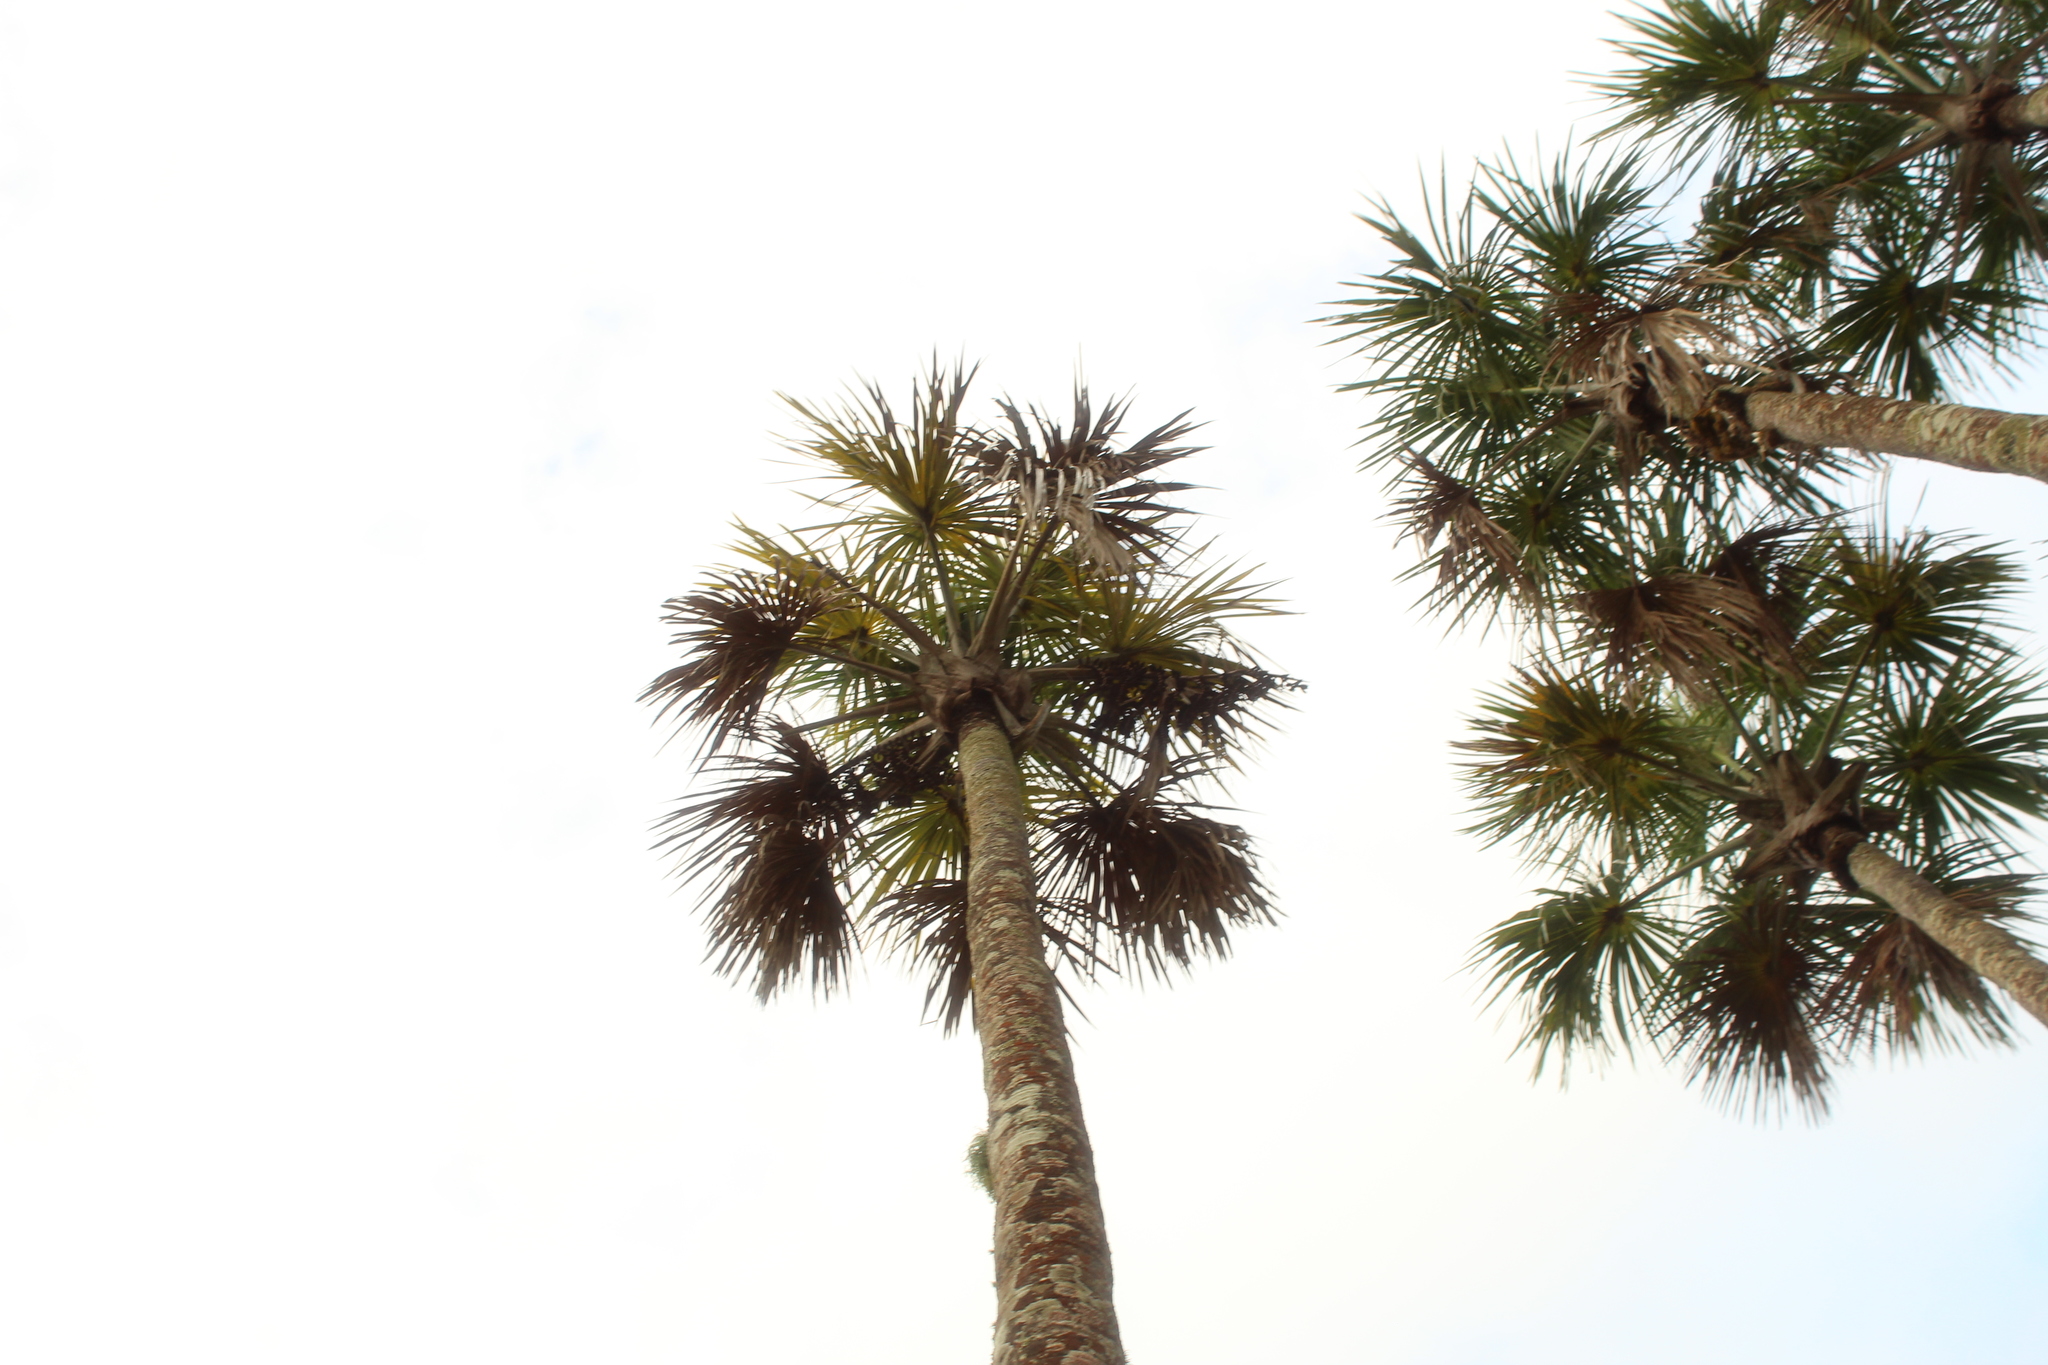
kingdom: Plantae
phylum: Tracheophyta
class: Liliopsida
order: Arecales
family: Arecaceae
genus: Mauritia
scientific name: Mauritia flexuosa
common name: Tree-of-life
